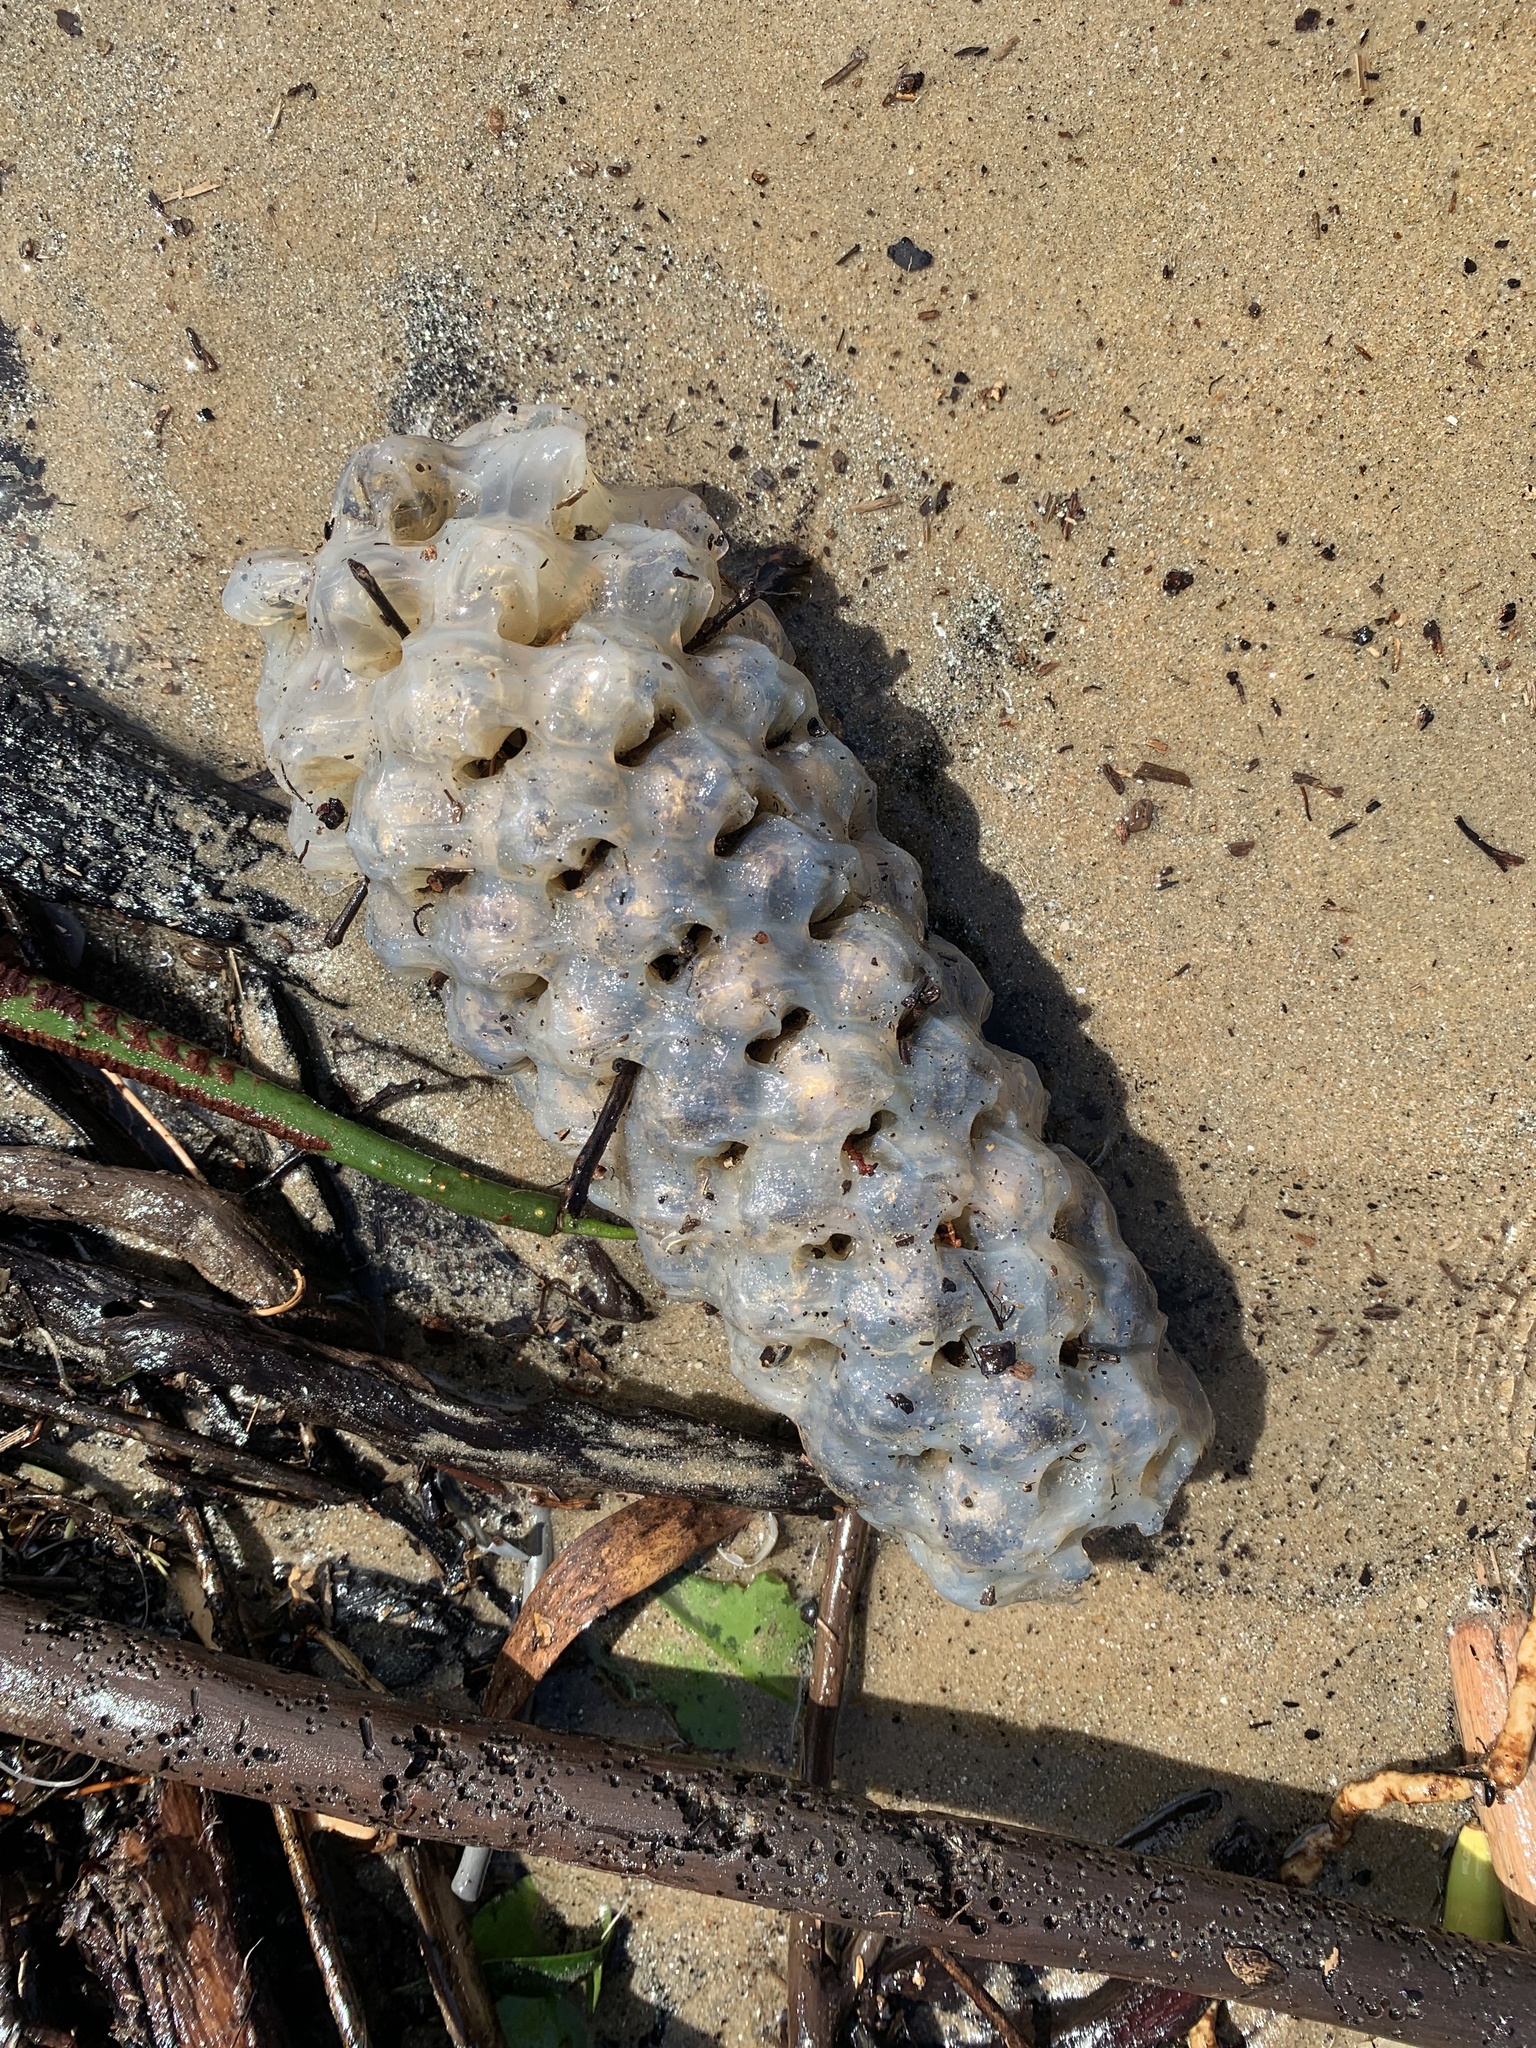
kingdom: Animalia
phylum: Mollusca
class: Gastropoda
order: Neogastropoda
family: Volutidae
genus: Melo
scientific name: Melo amphora
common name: Diadem volute
